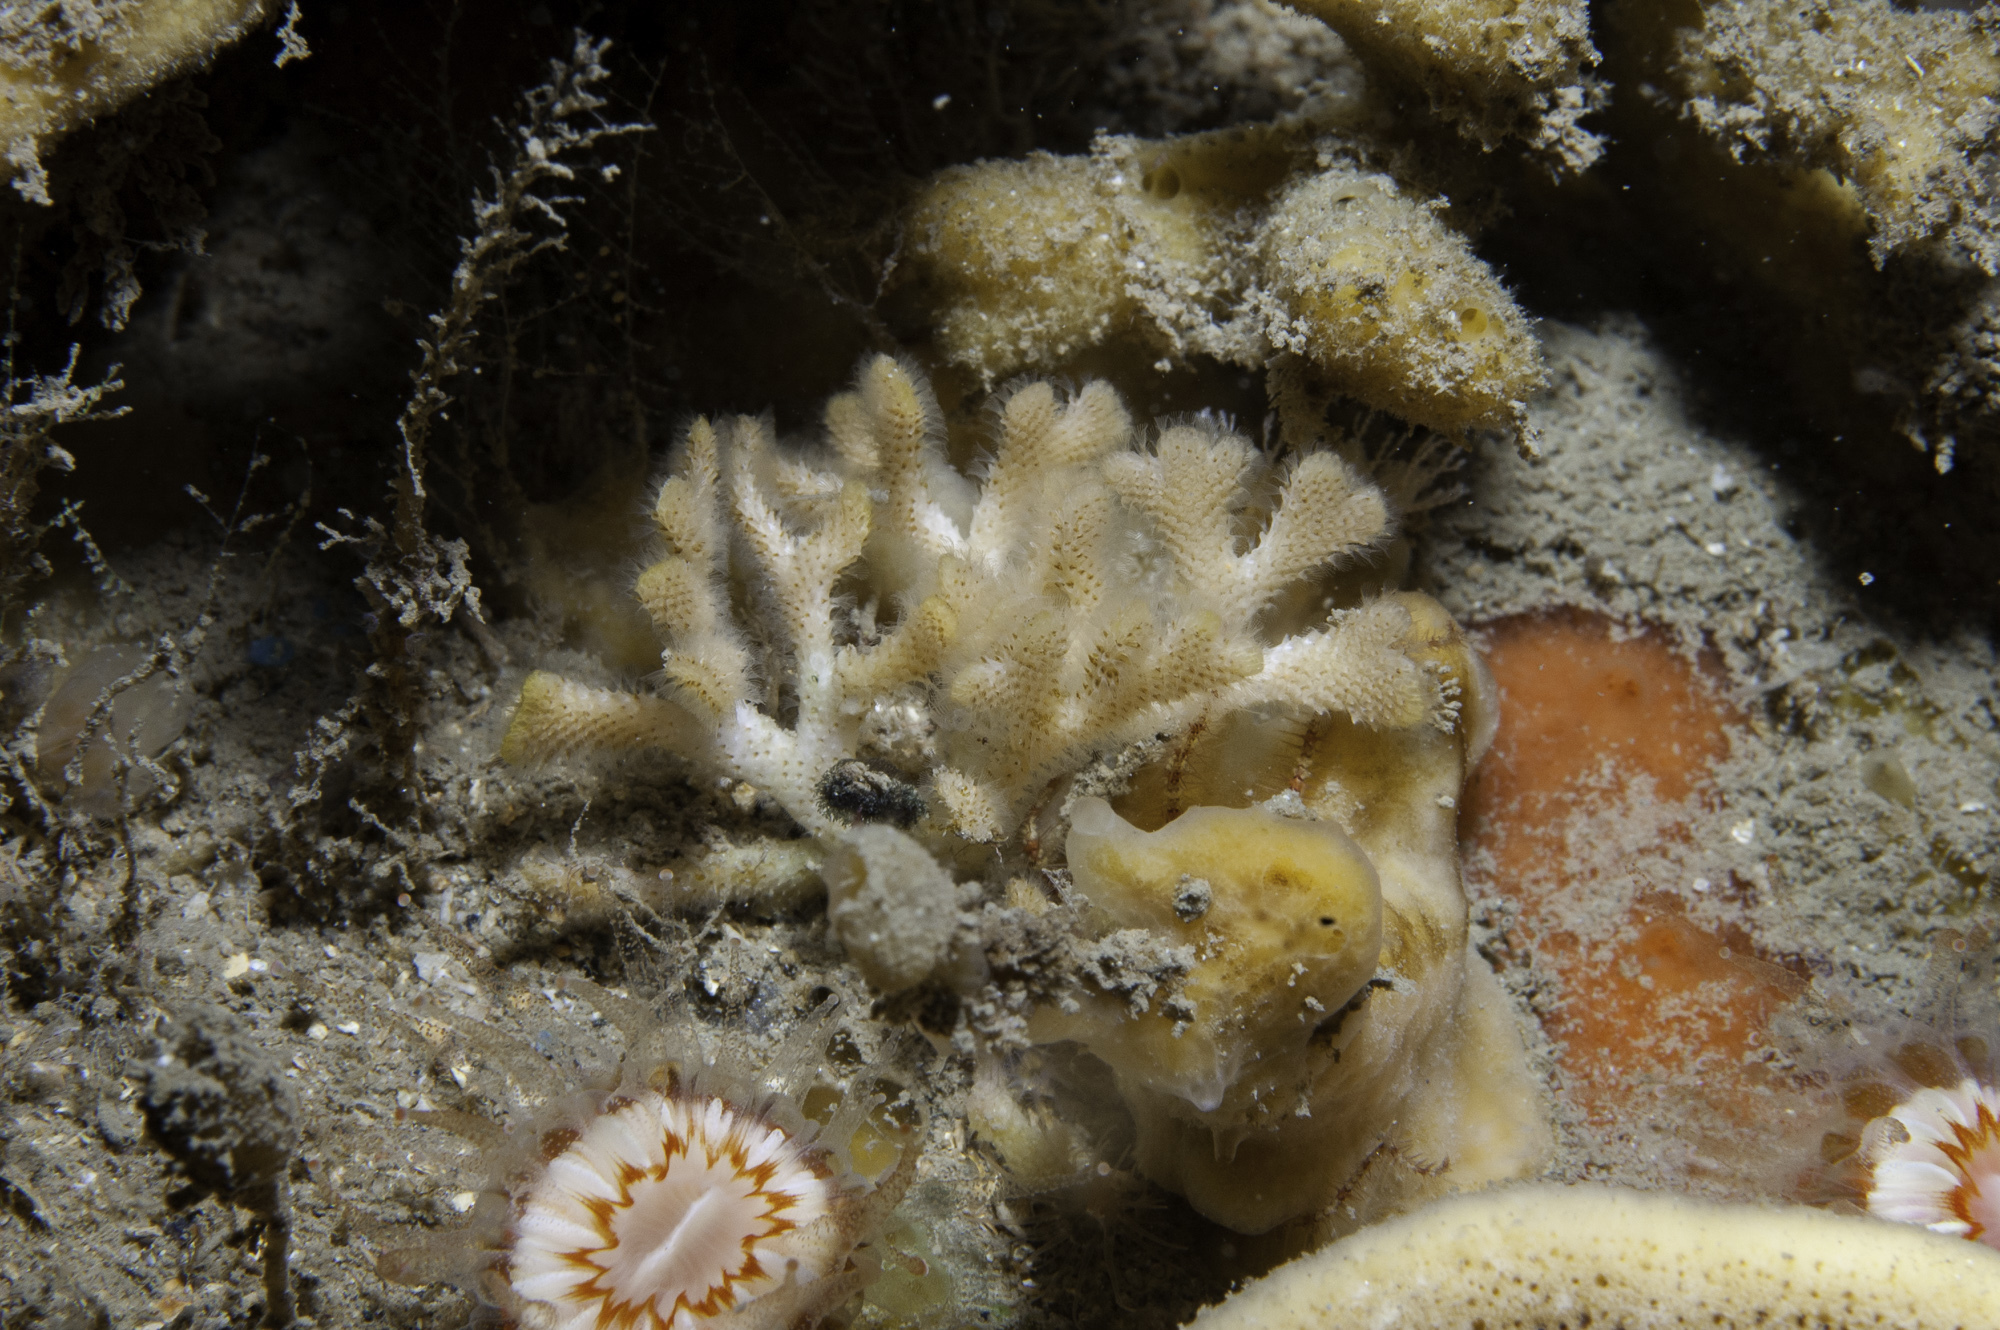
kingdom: Animalia
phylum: Bryozoa
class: Gymnolaemata
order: Cheilostomatida
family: Bryocryptellidae
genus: Palmiskenea
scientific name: Palmiskenea skenei
